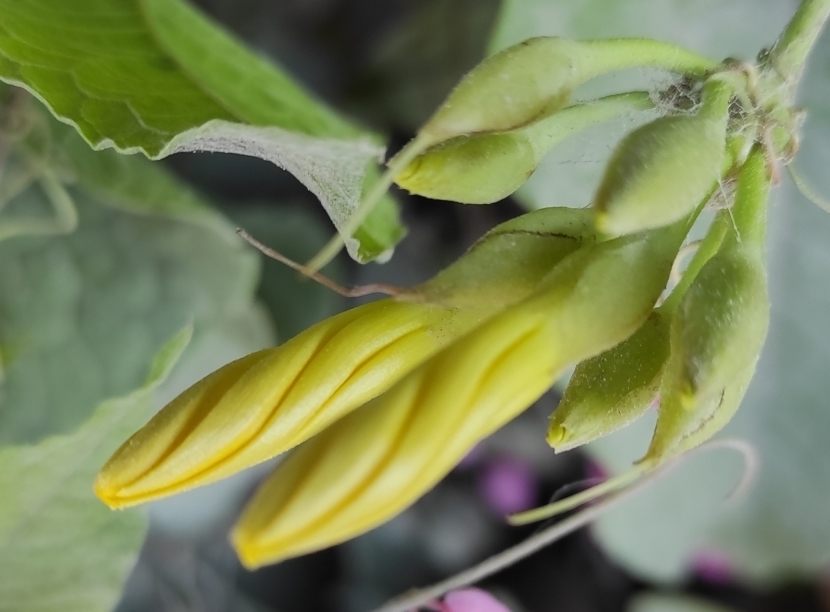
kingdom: Plantae
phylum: Tracheophyta
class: Magnoliopsida
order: Solanales
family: Convolvulaceae
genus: Camonea
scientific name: Camonea umbellata
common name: Hogvine
